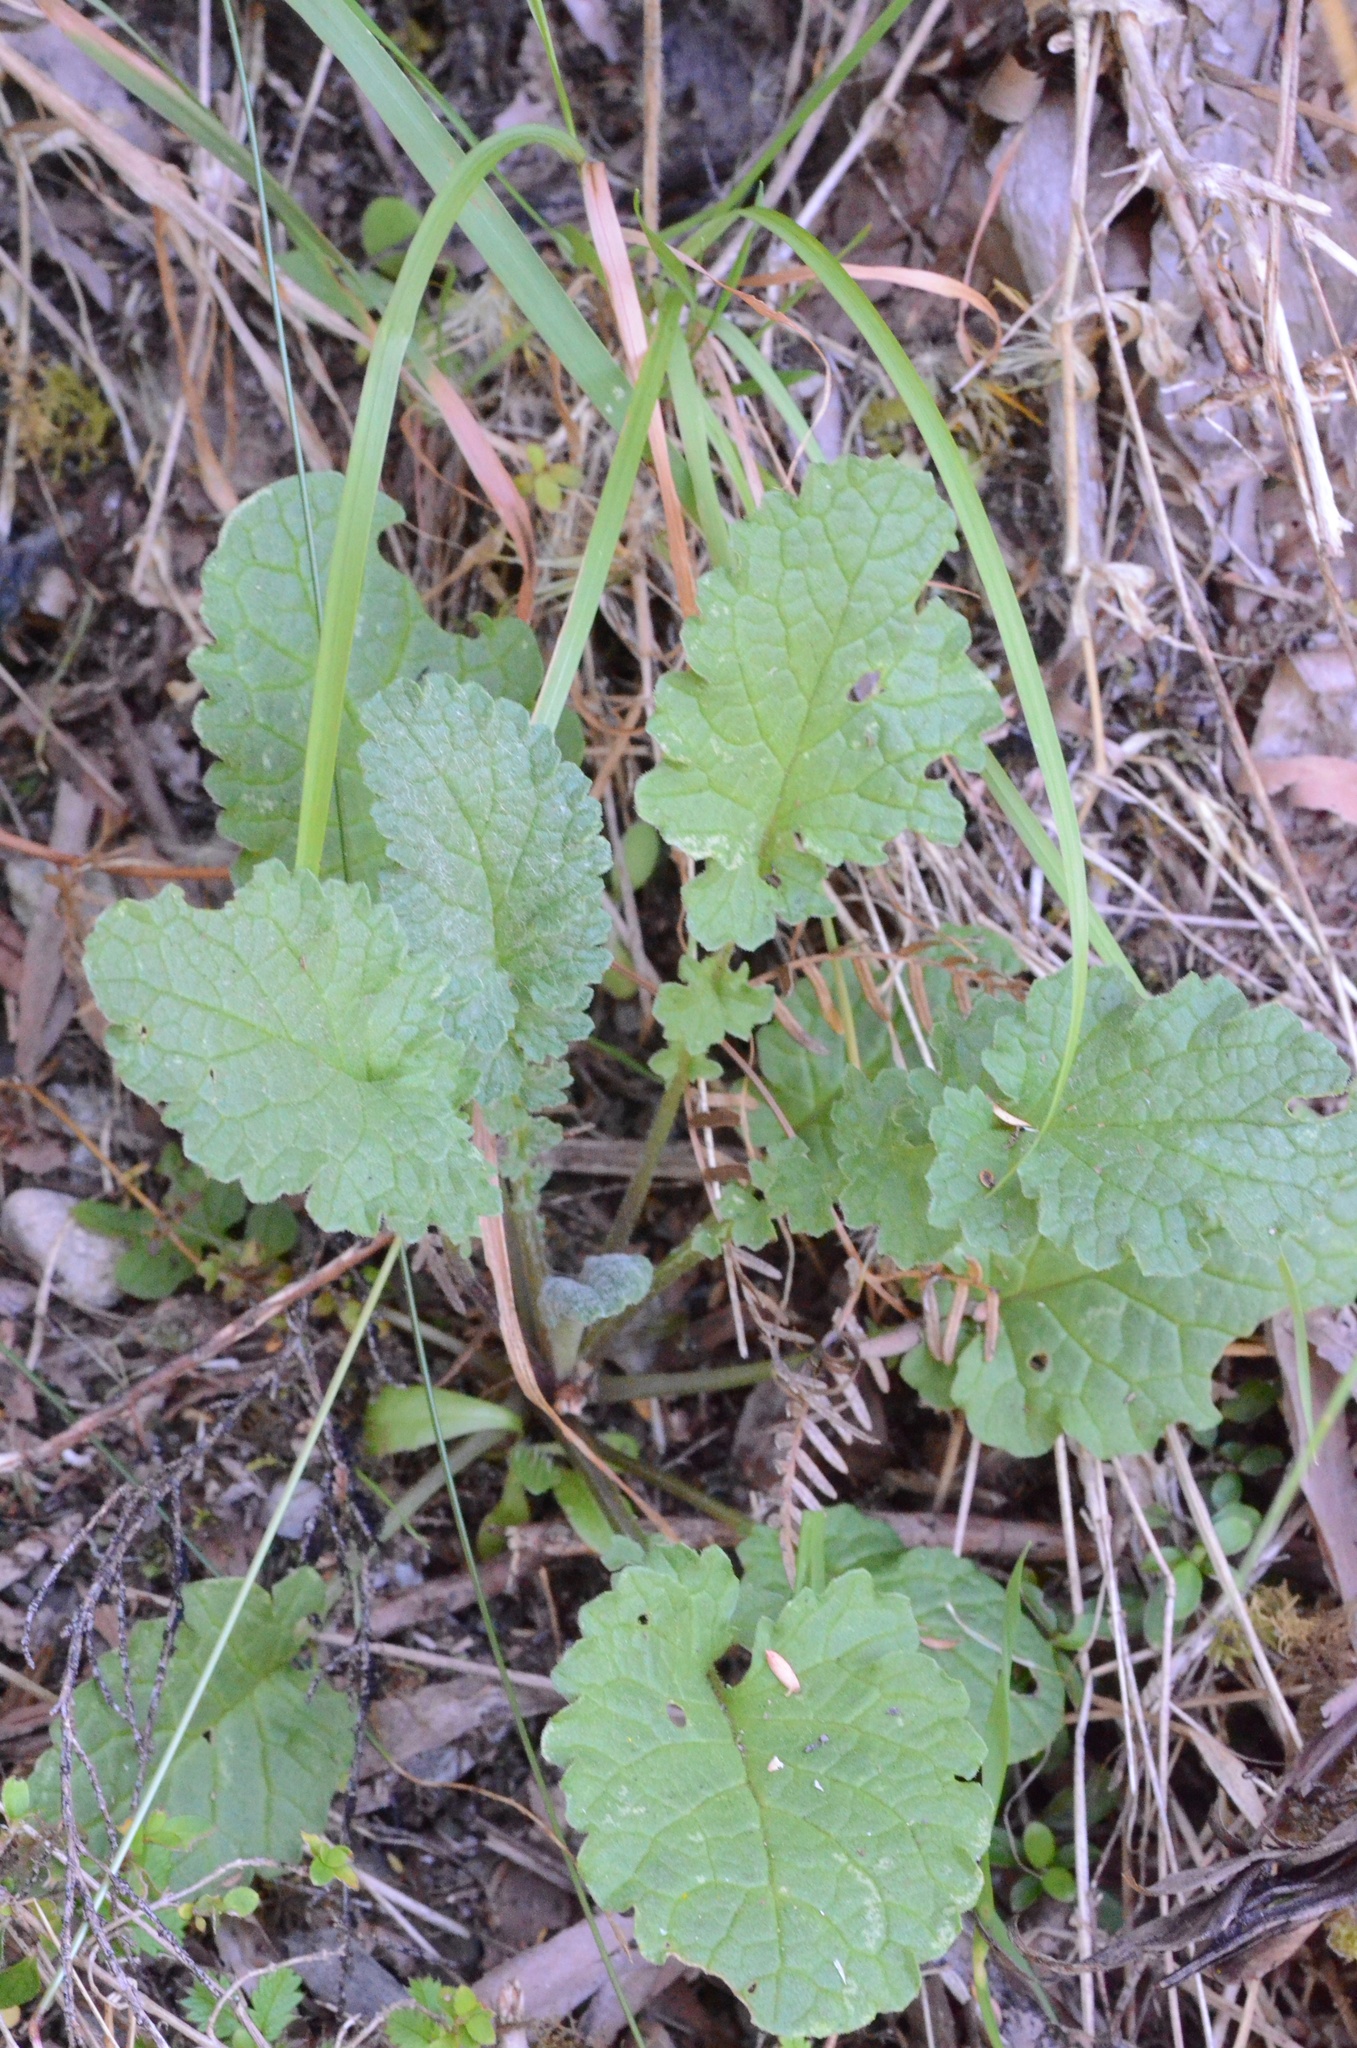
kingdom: Plantae
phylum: Tracheophyta
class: Magnoliopsida
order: Asterales
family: Asteraceae
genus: Jacobaea
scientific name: Jacobaea vulgaris
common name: Stinking willie
